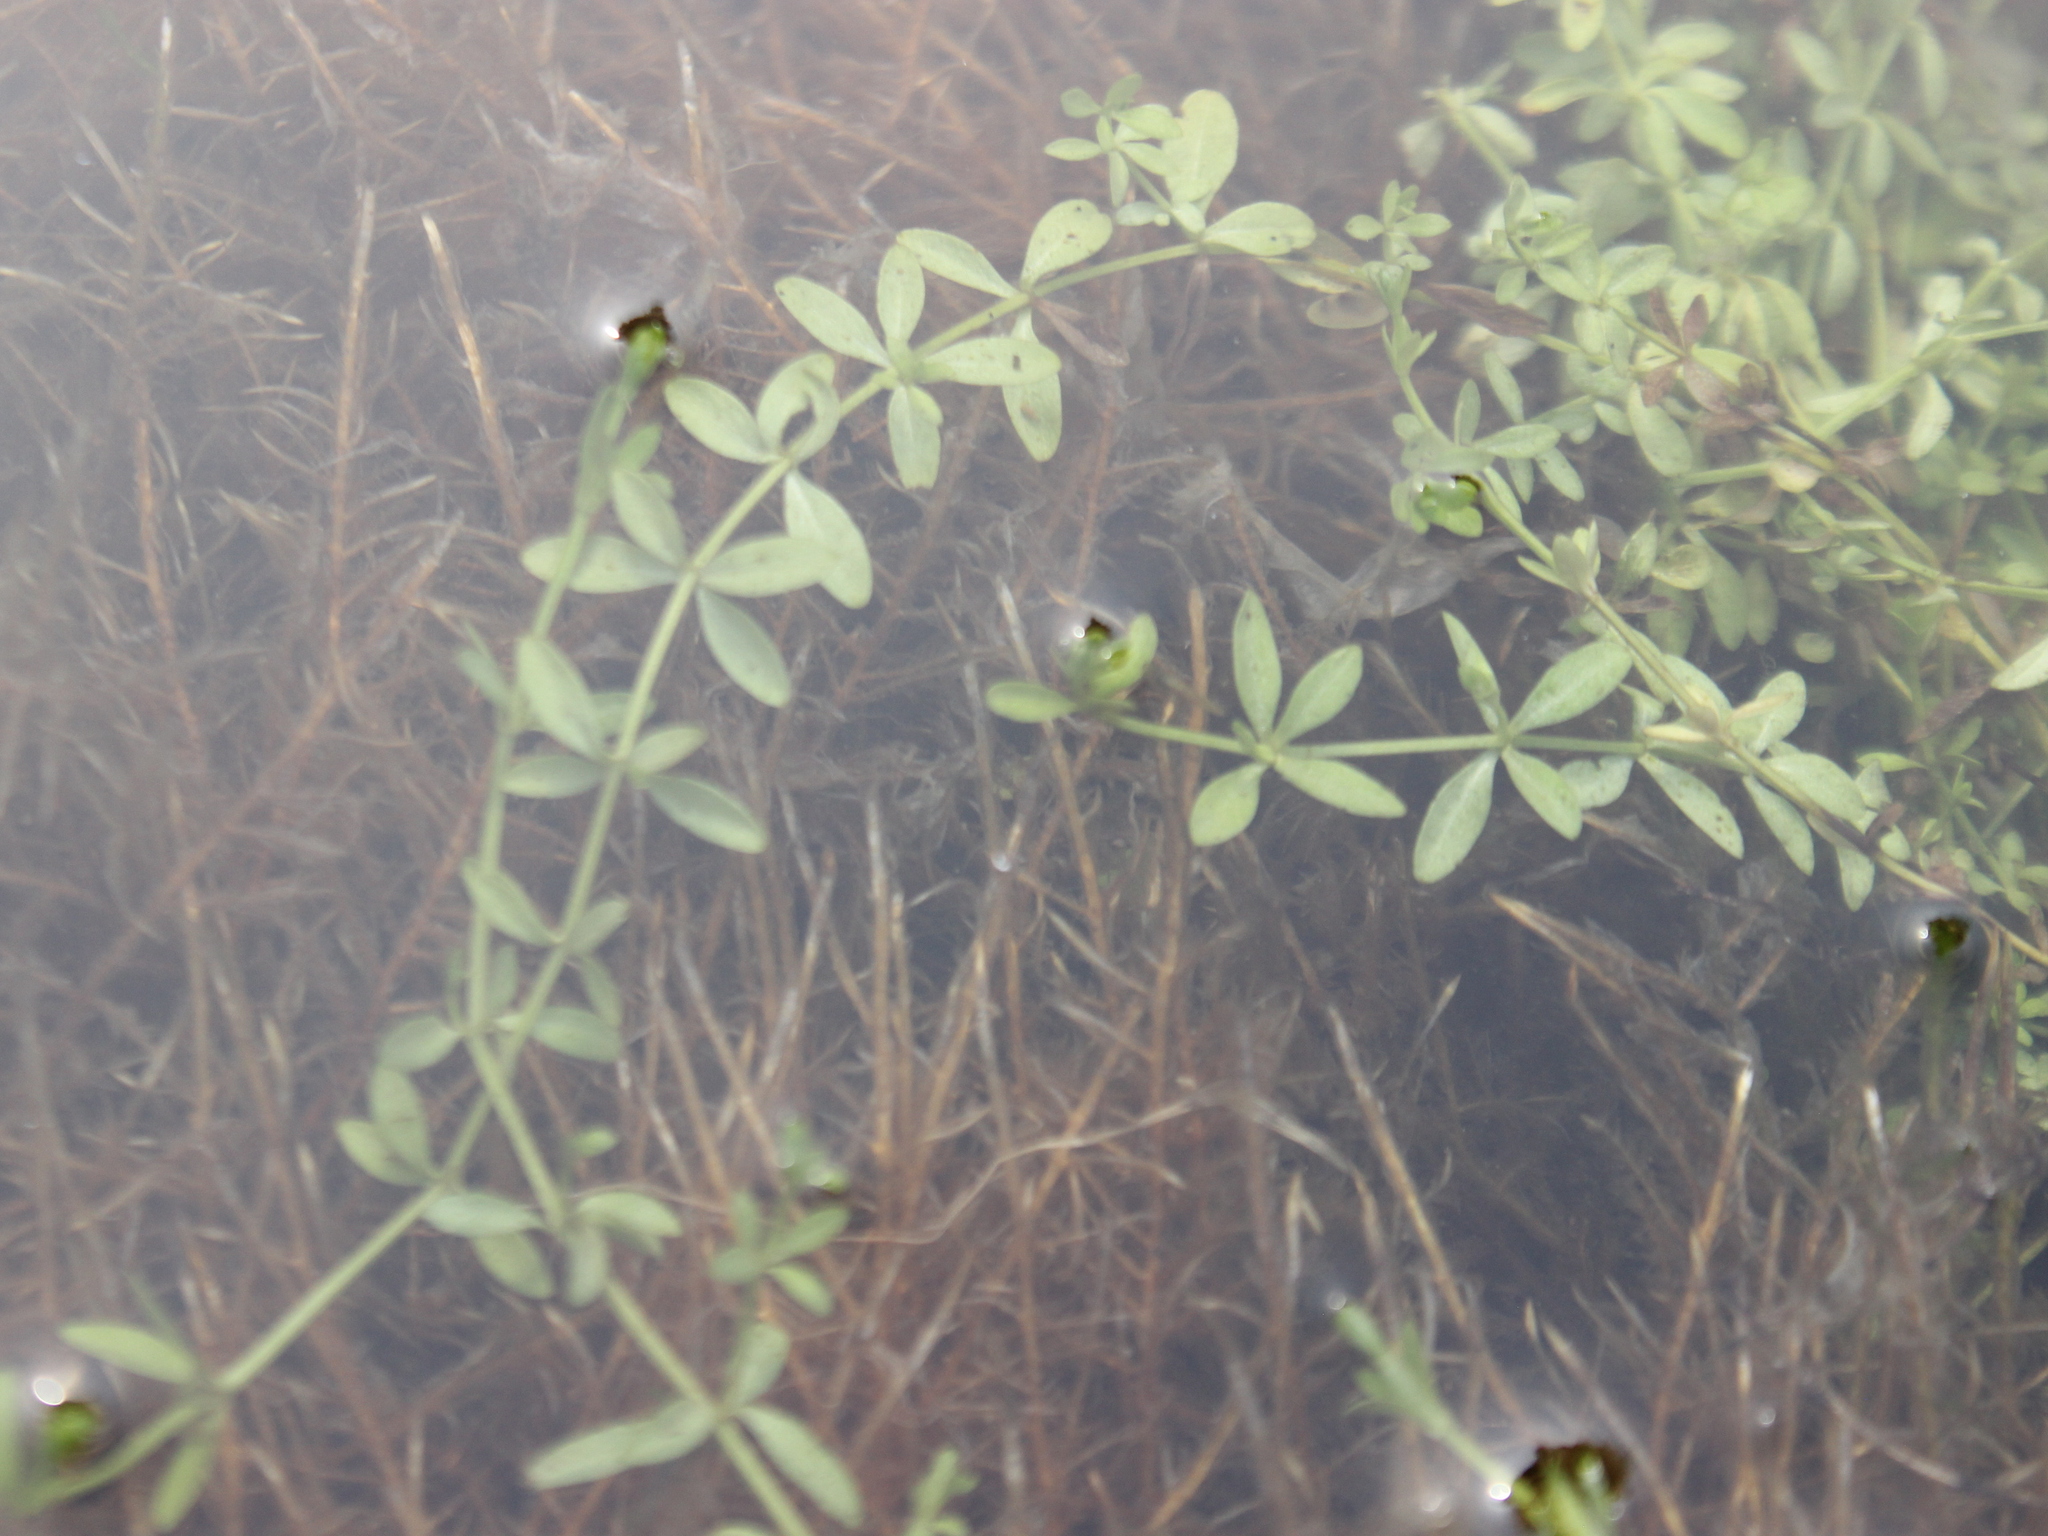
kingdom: Plantae
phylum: Tracheophyta
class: Magnoliopsida
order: Gentianales
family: Rubiaceae
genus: Galium
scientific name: Galium palustre
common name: Common marsh-bedstraw
